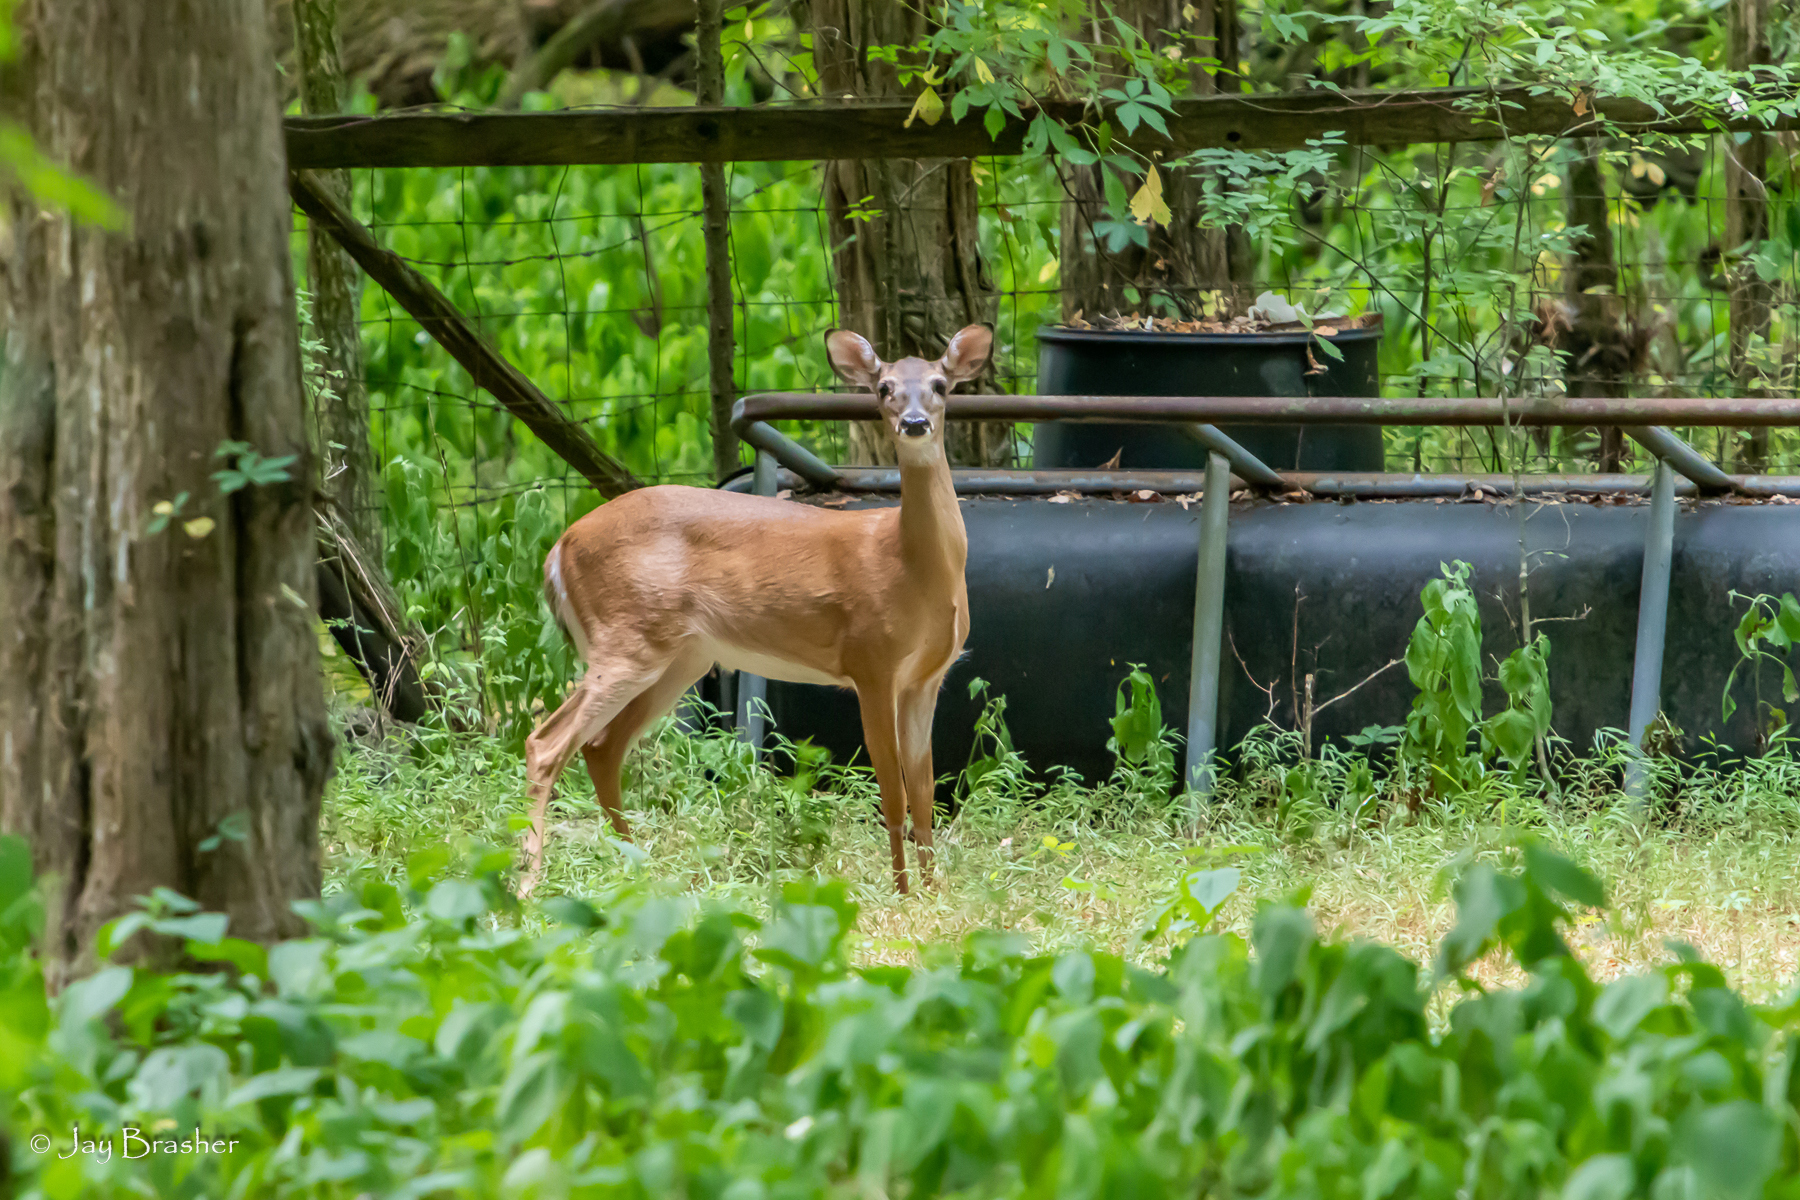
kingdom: Animalia
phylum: Chordata
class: Mammalia
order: Artiodactyla
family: Cervidae
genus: Odocoileus
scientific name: Odocoileus virginianus
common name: White-tailed deer
